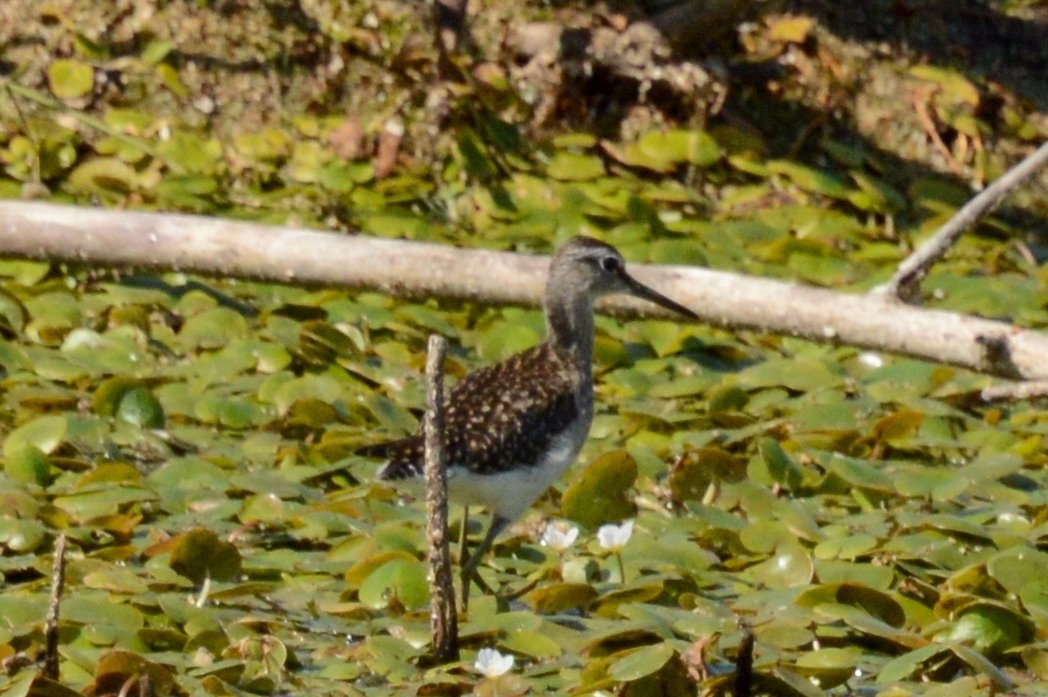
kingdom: Animalia
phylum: Chordata
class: Aves
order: Charadriiformes
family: Scolopacidae
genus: Tringa
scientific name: Tringa glareola
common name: Wood sandpiper
